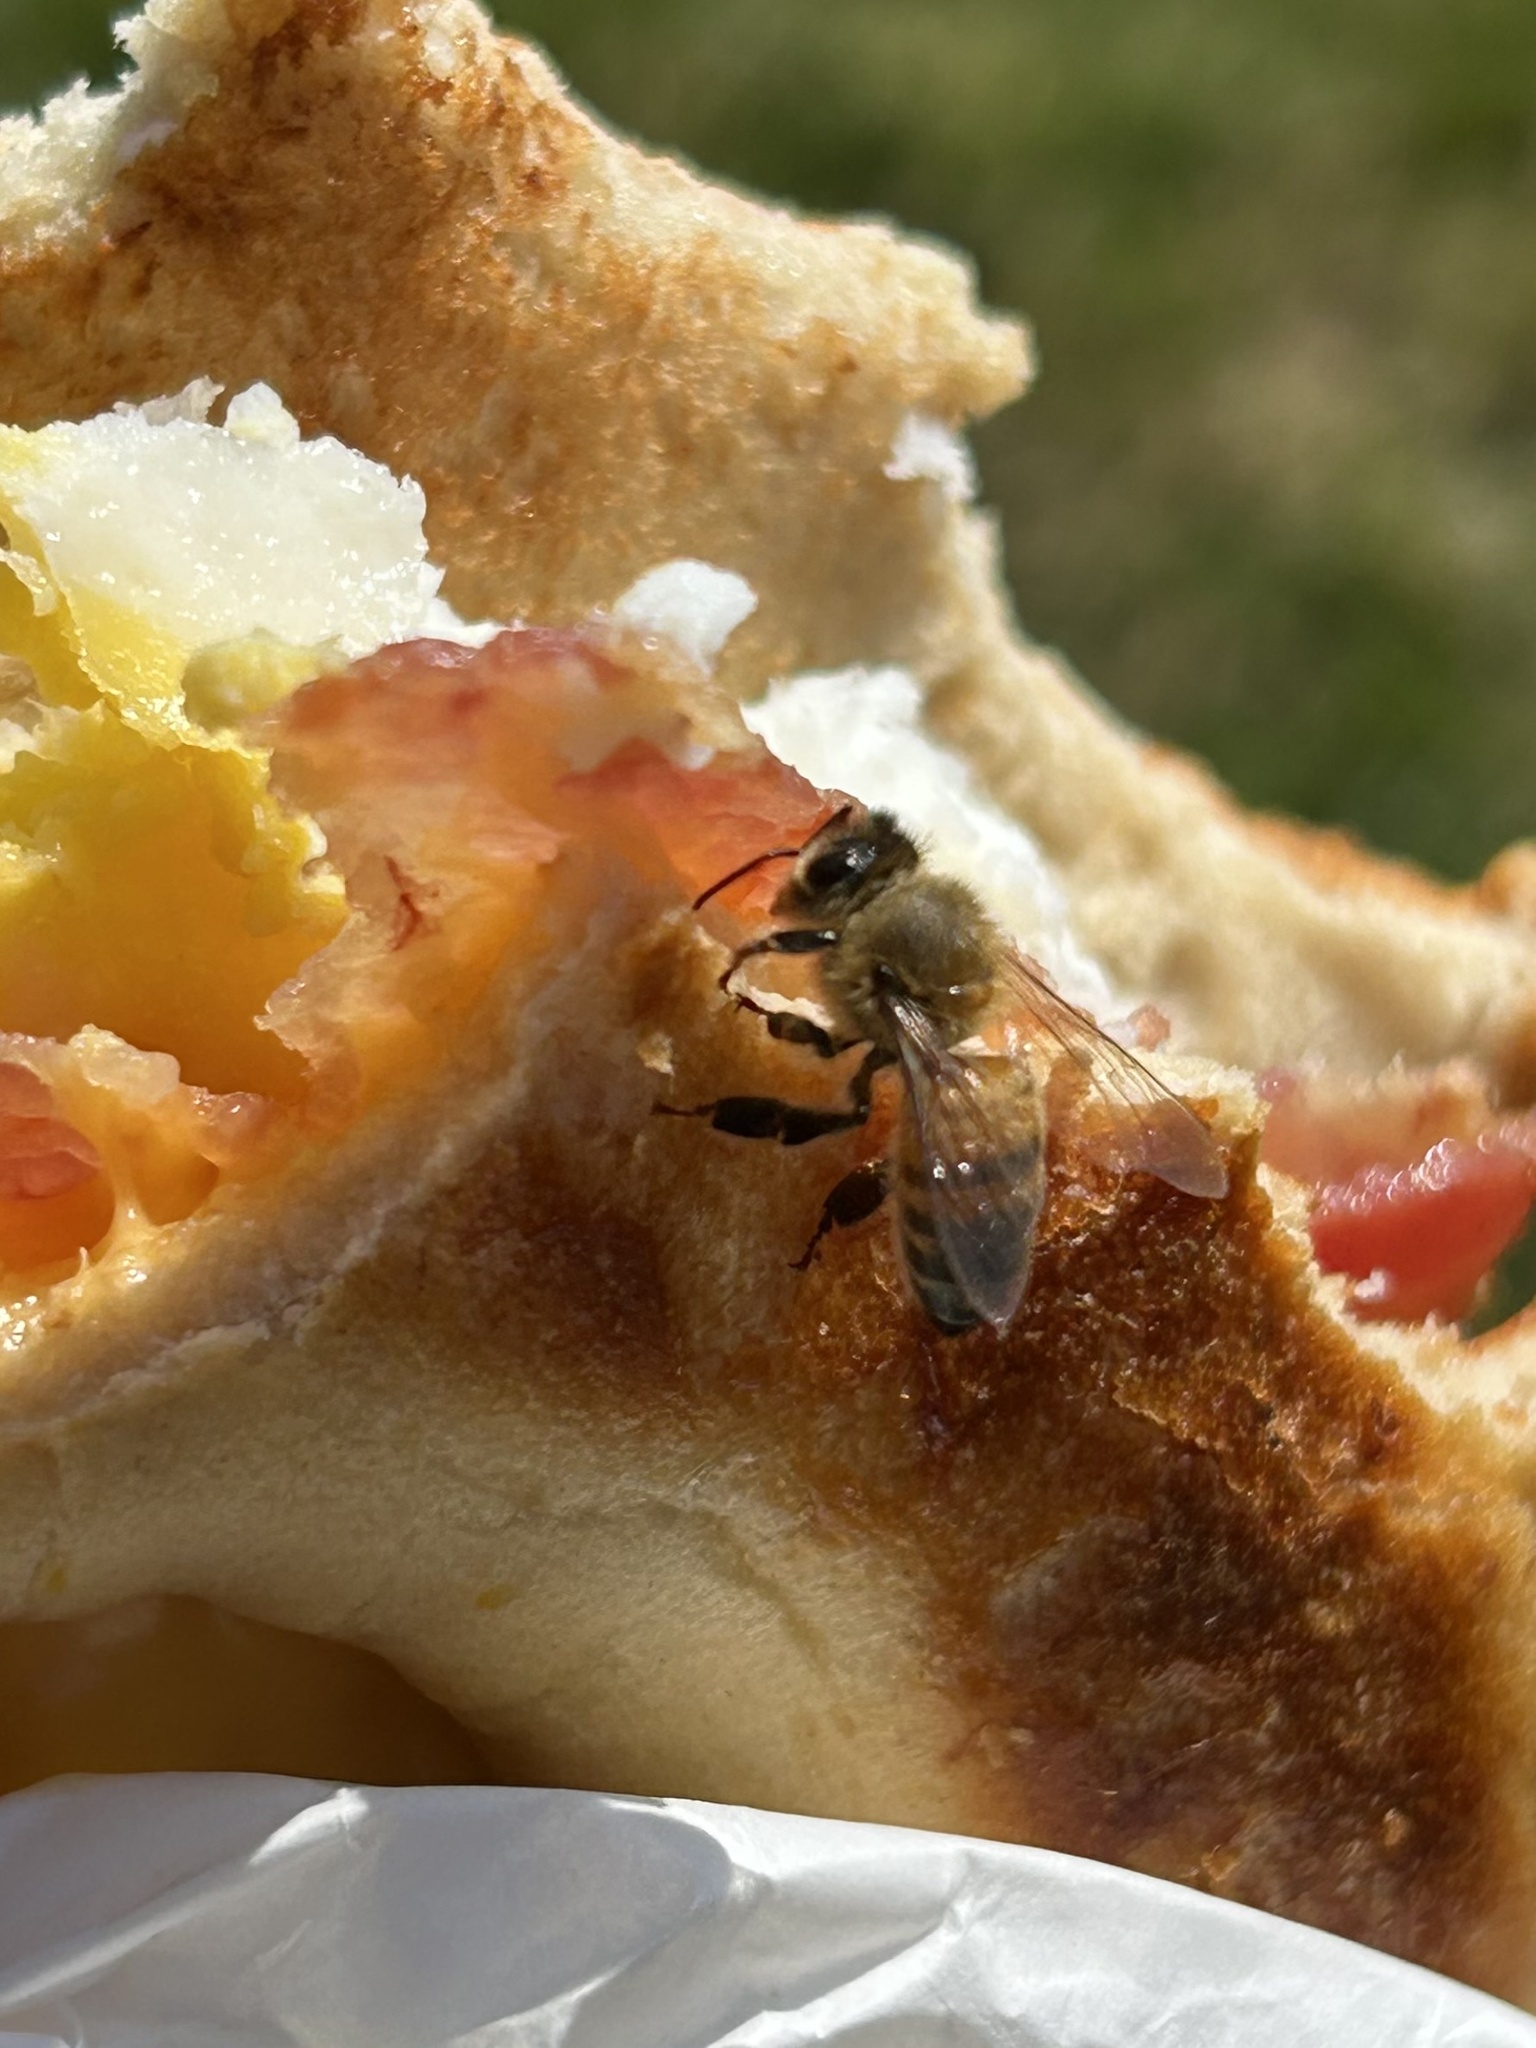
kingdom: Animalia
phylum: Arthropoda
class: Insecta
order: Hymenoptera
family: Apidae
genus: Apis
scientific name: Apis mellifera
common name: Honey bee
